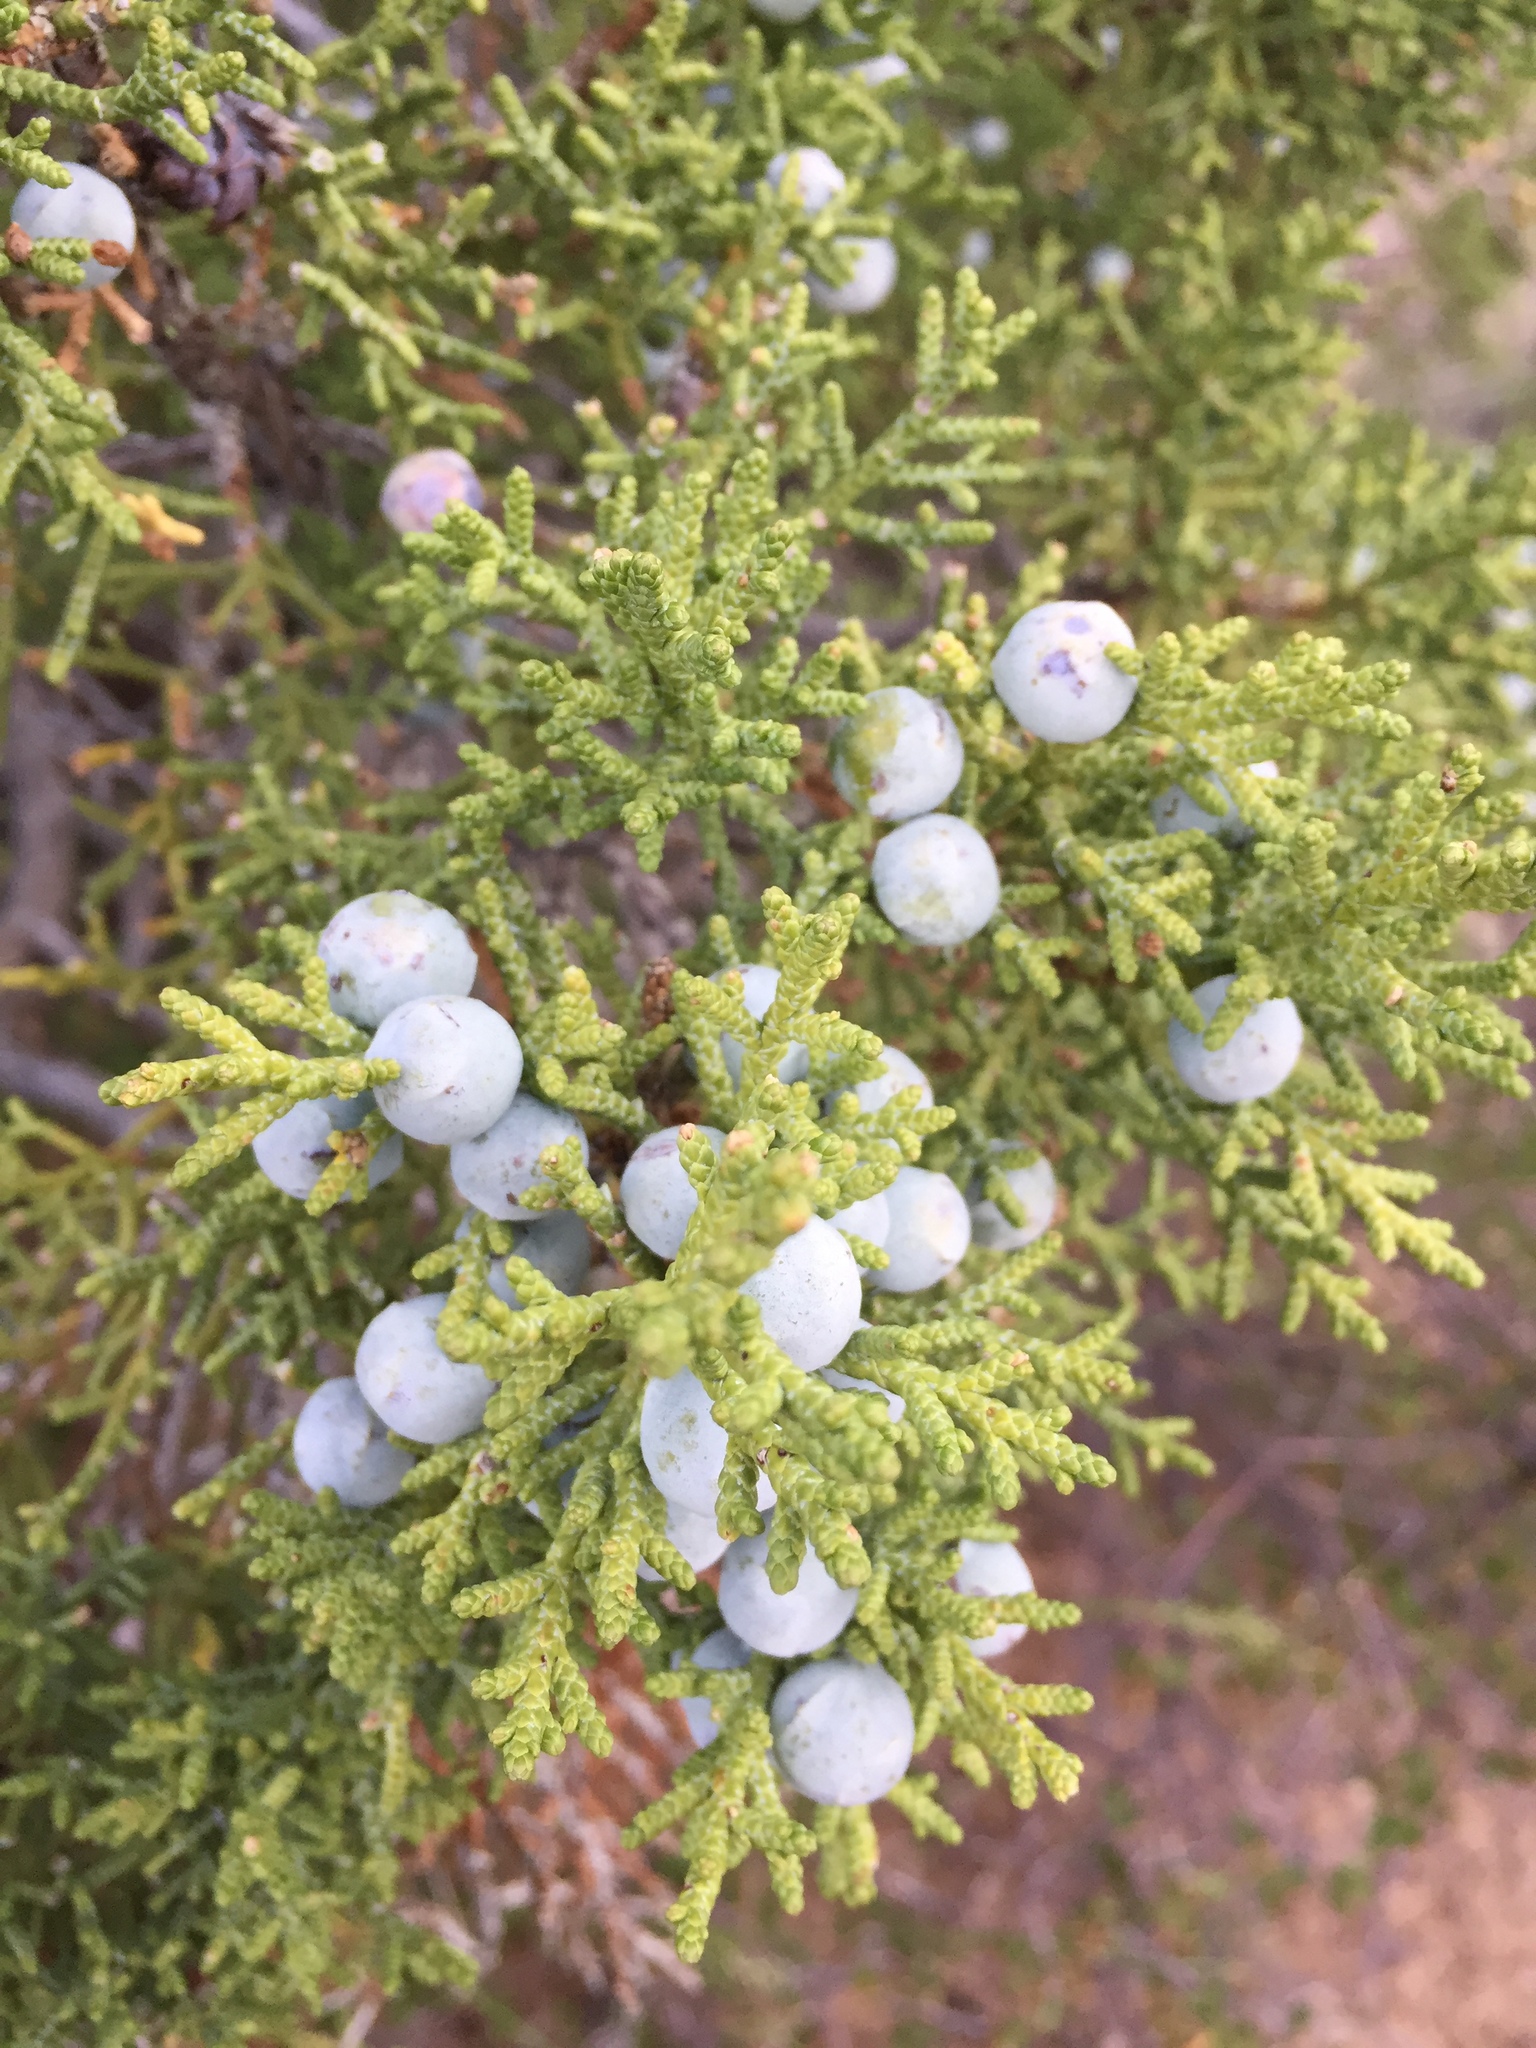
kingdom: Plantae
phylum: Tracheophyta
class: Pinopsida
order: Pinales
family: Cupressaceae
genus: Juniperus
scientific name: Juniperus osteosperma
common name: Utah juniper
